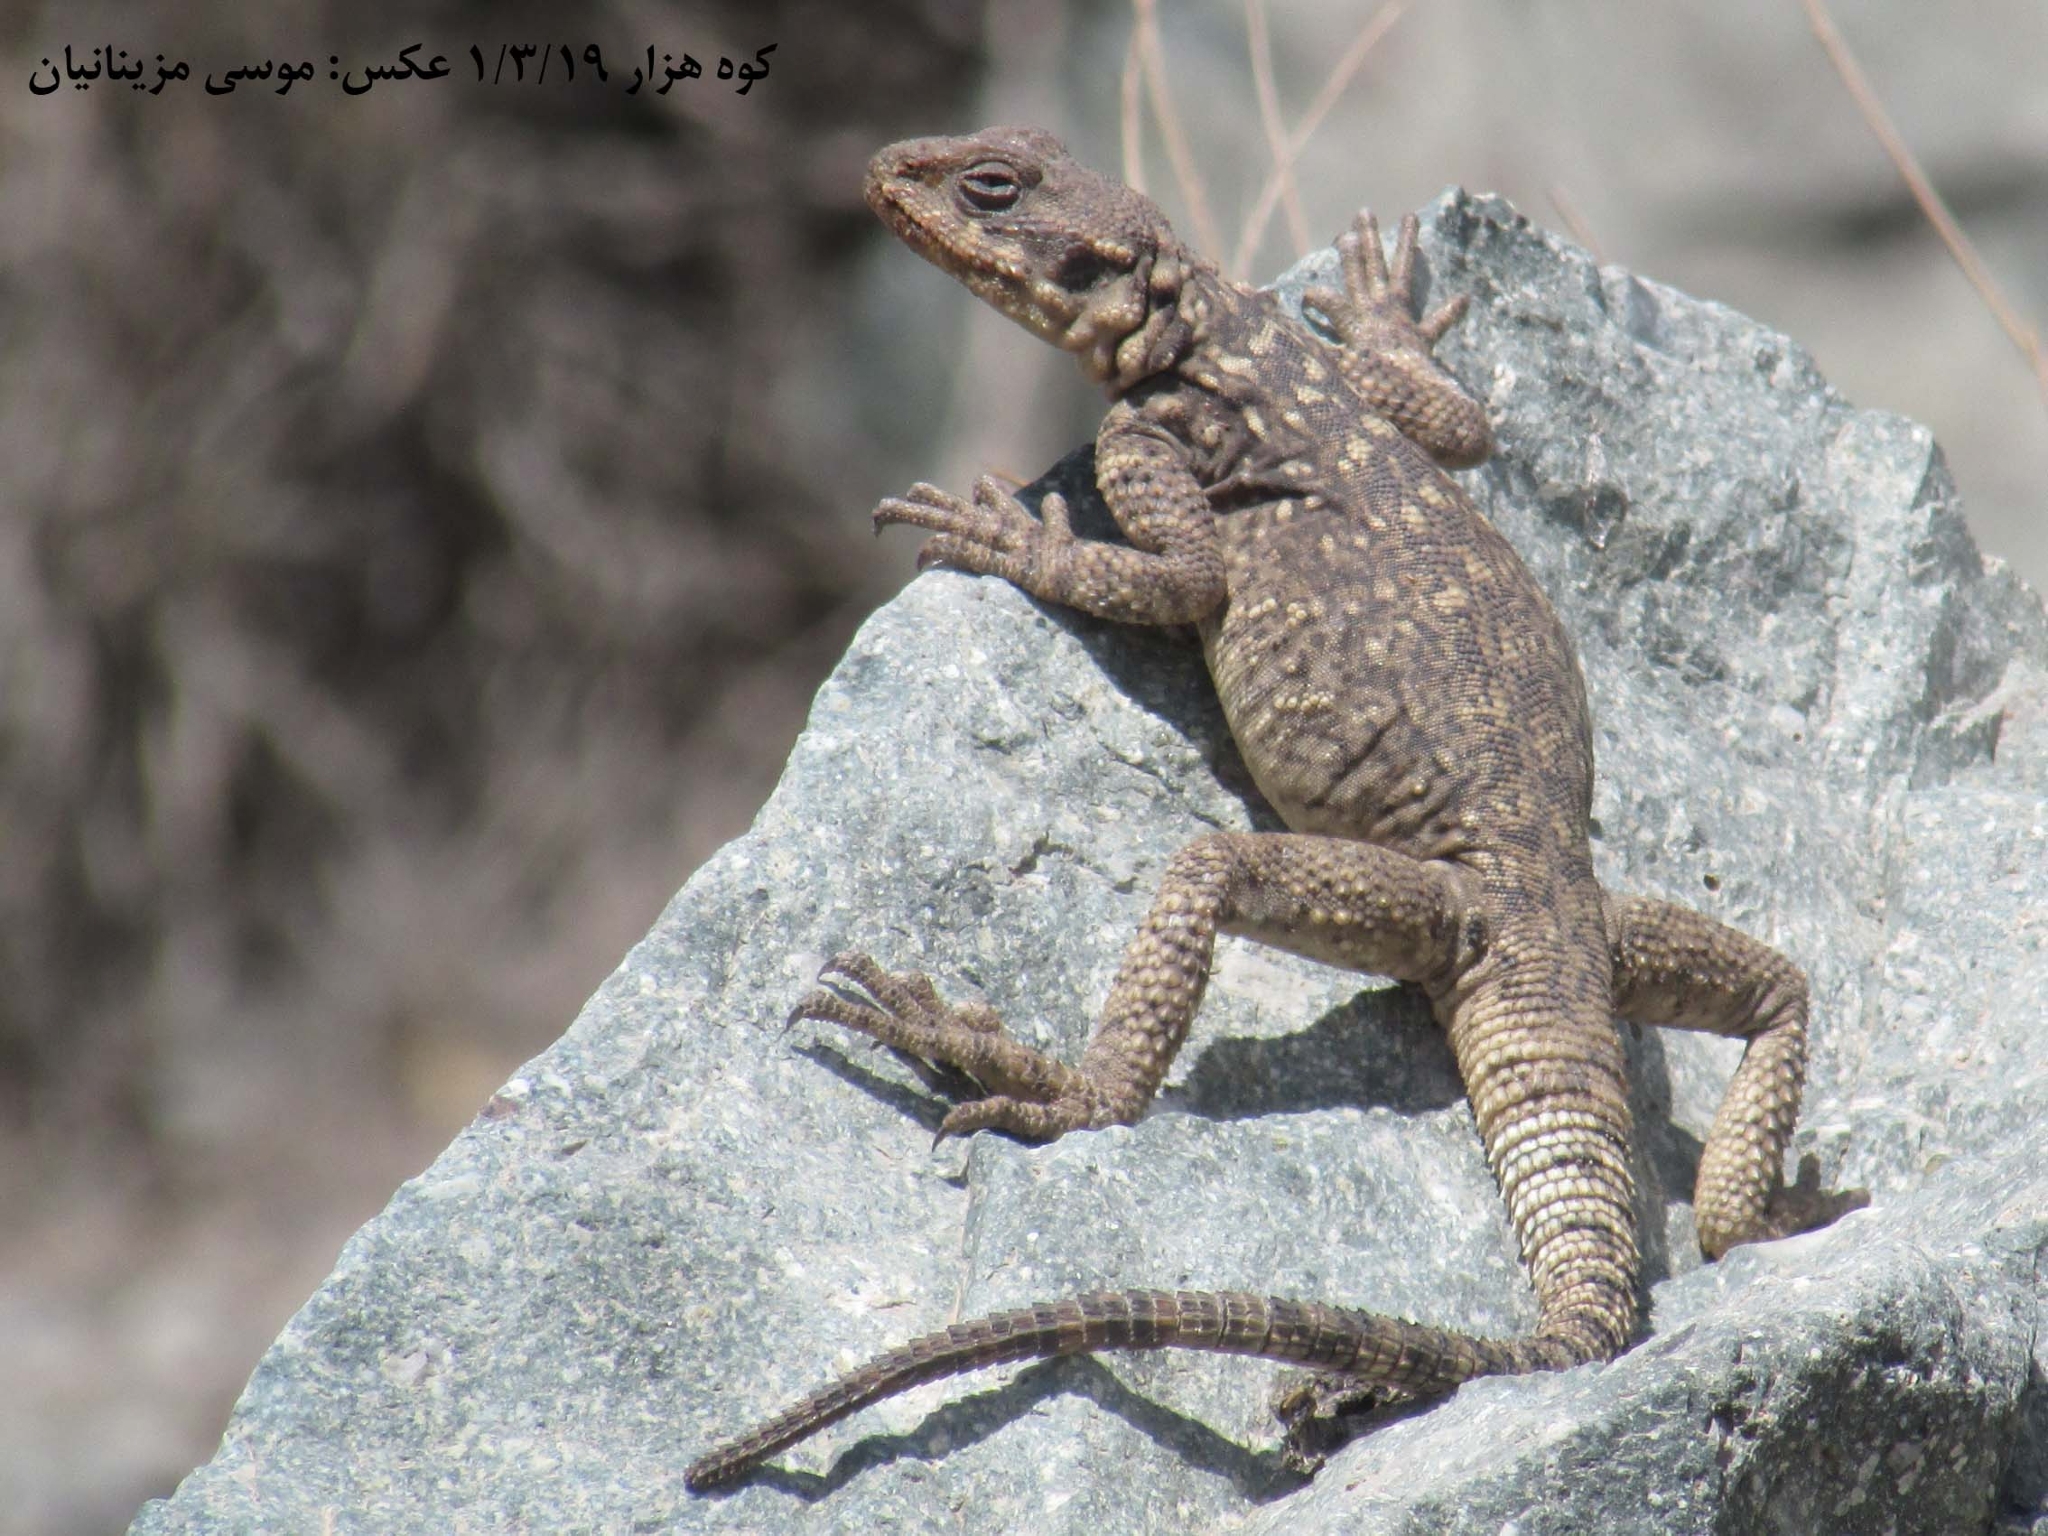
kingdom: Animalia
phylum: Chordata
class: Squamata
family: Agamidae
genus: Paralaudakia
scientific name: Paralaudakia microlepis
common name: Small-scaled rock agama
